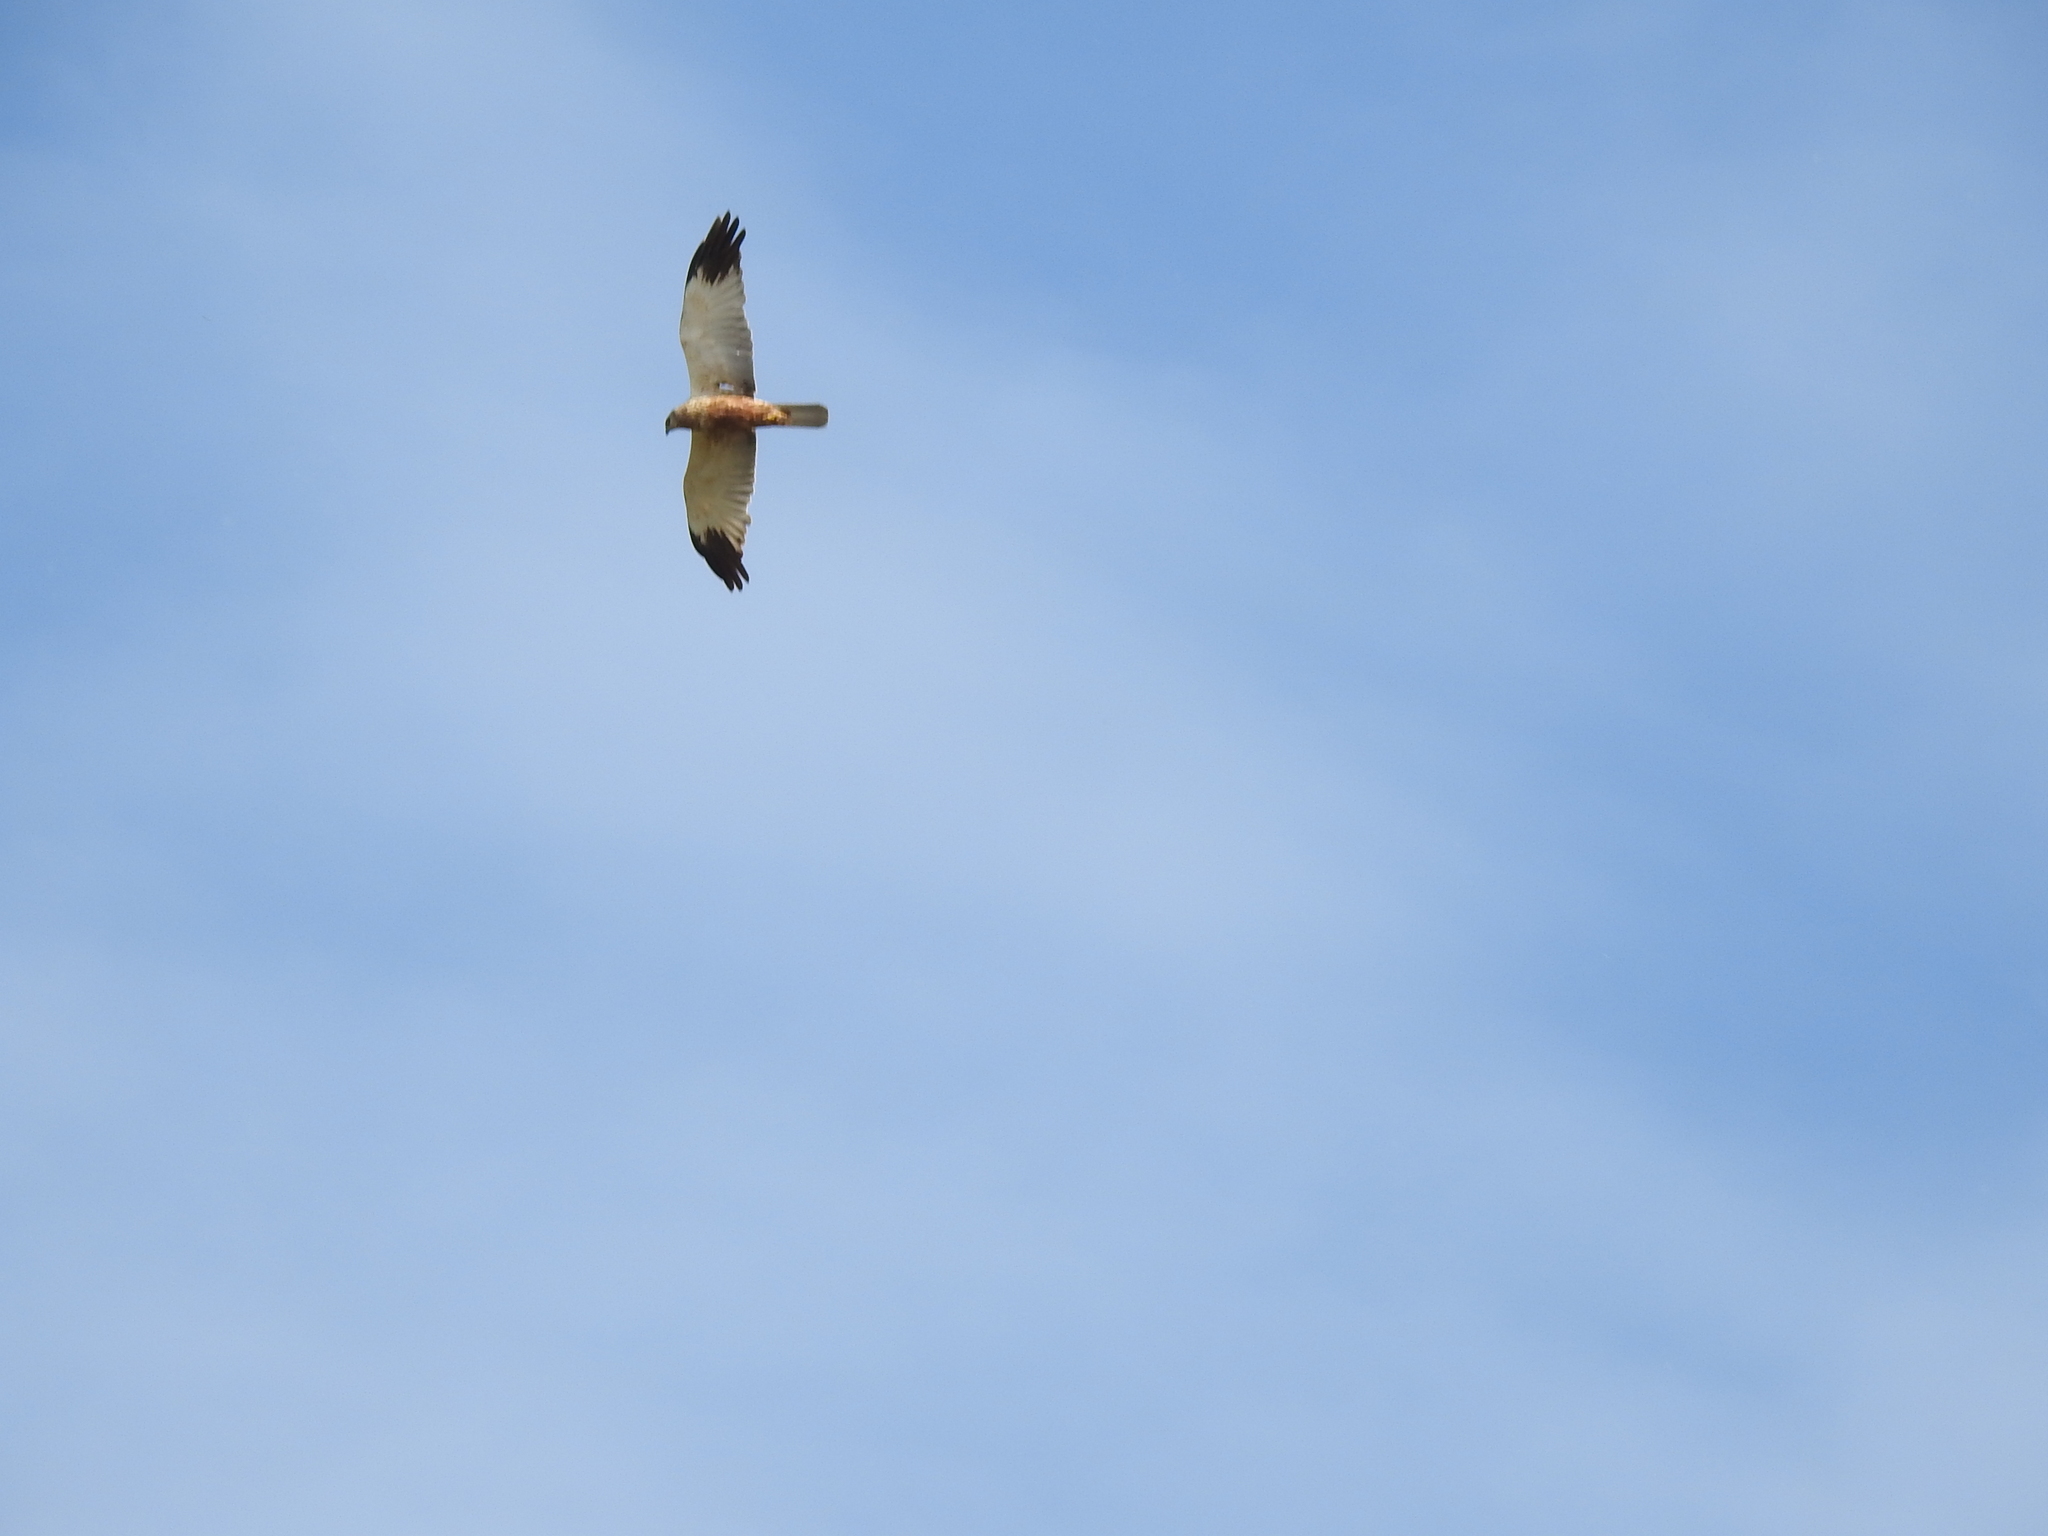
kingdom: Animalia
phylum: Chordata
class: Aves
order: Accipitriformes
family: Accipitridae
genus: Circus
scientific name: Circus aeruginosus
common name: Western marsh harrier
